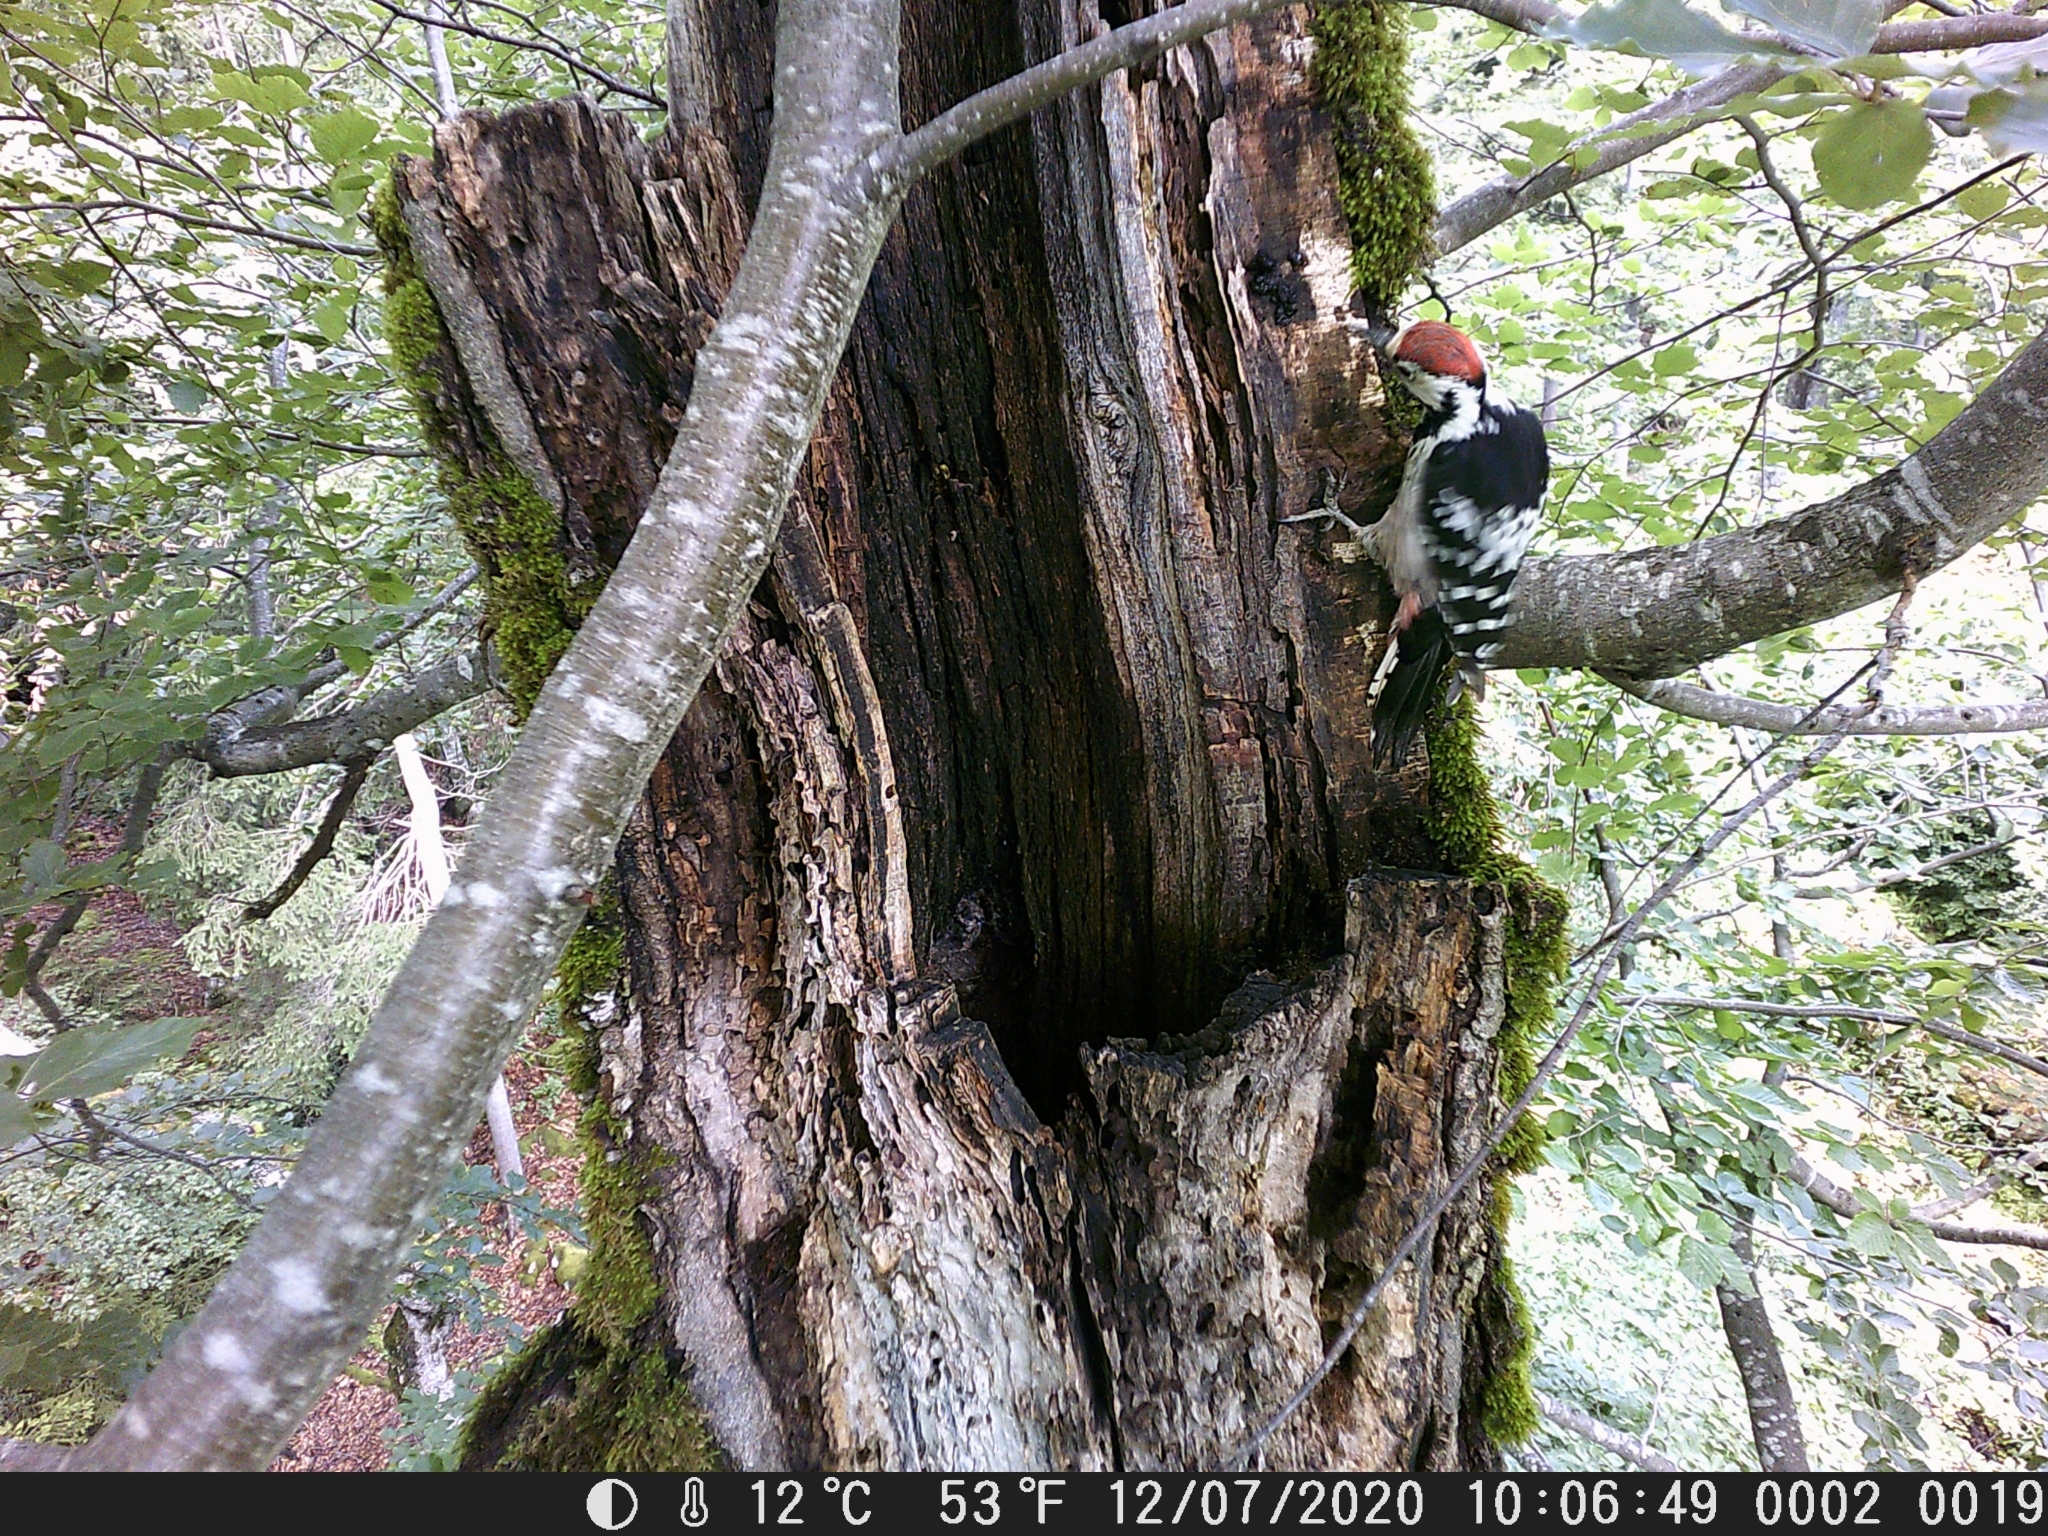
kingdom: Animalia
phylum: Chordata
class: Aves
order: Piciformes
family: Picidae
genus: Dendrocopos
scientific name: Dendrocopos leucotos
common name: White-backed woodpecker
